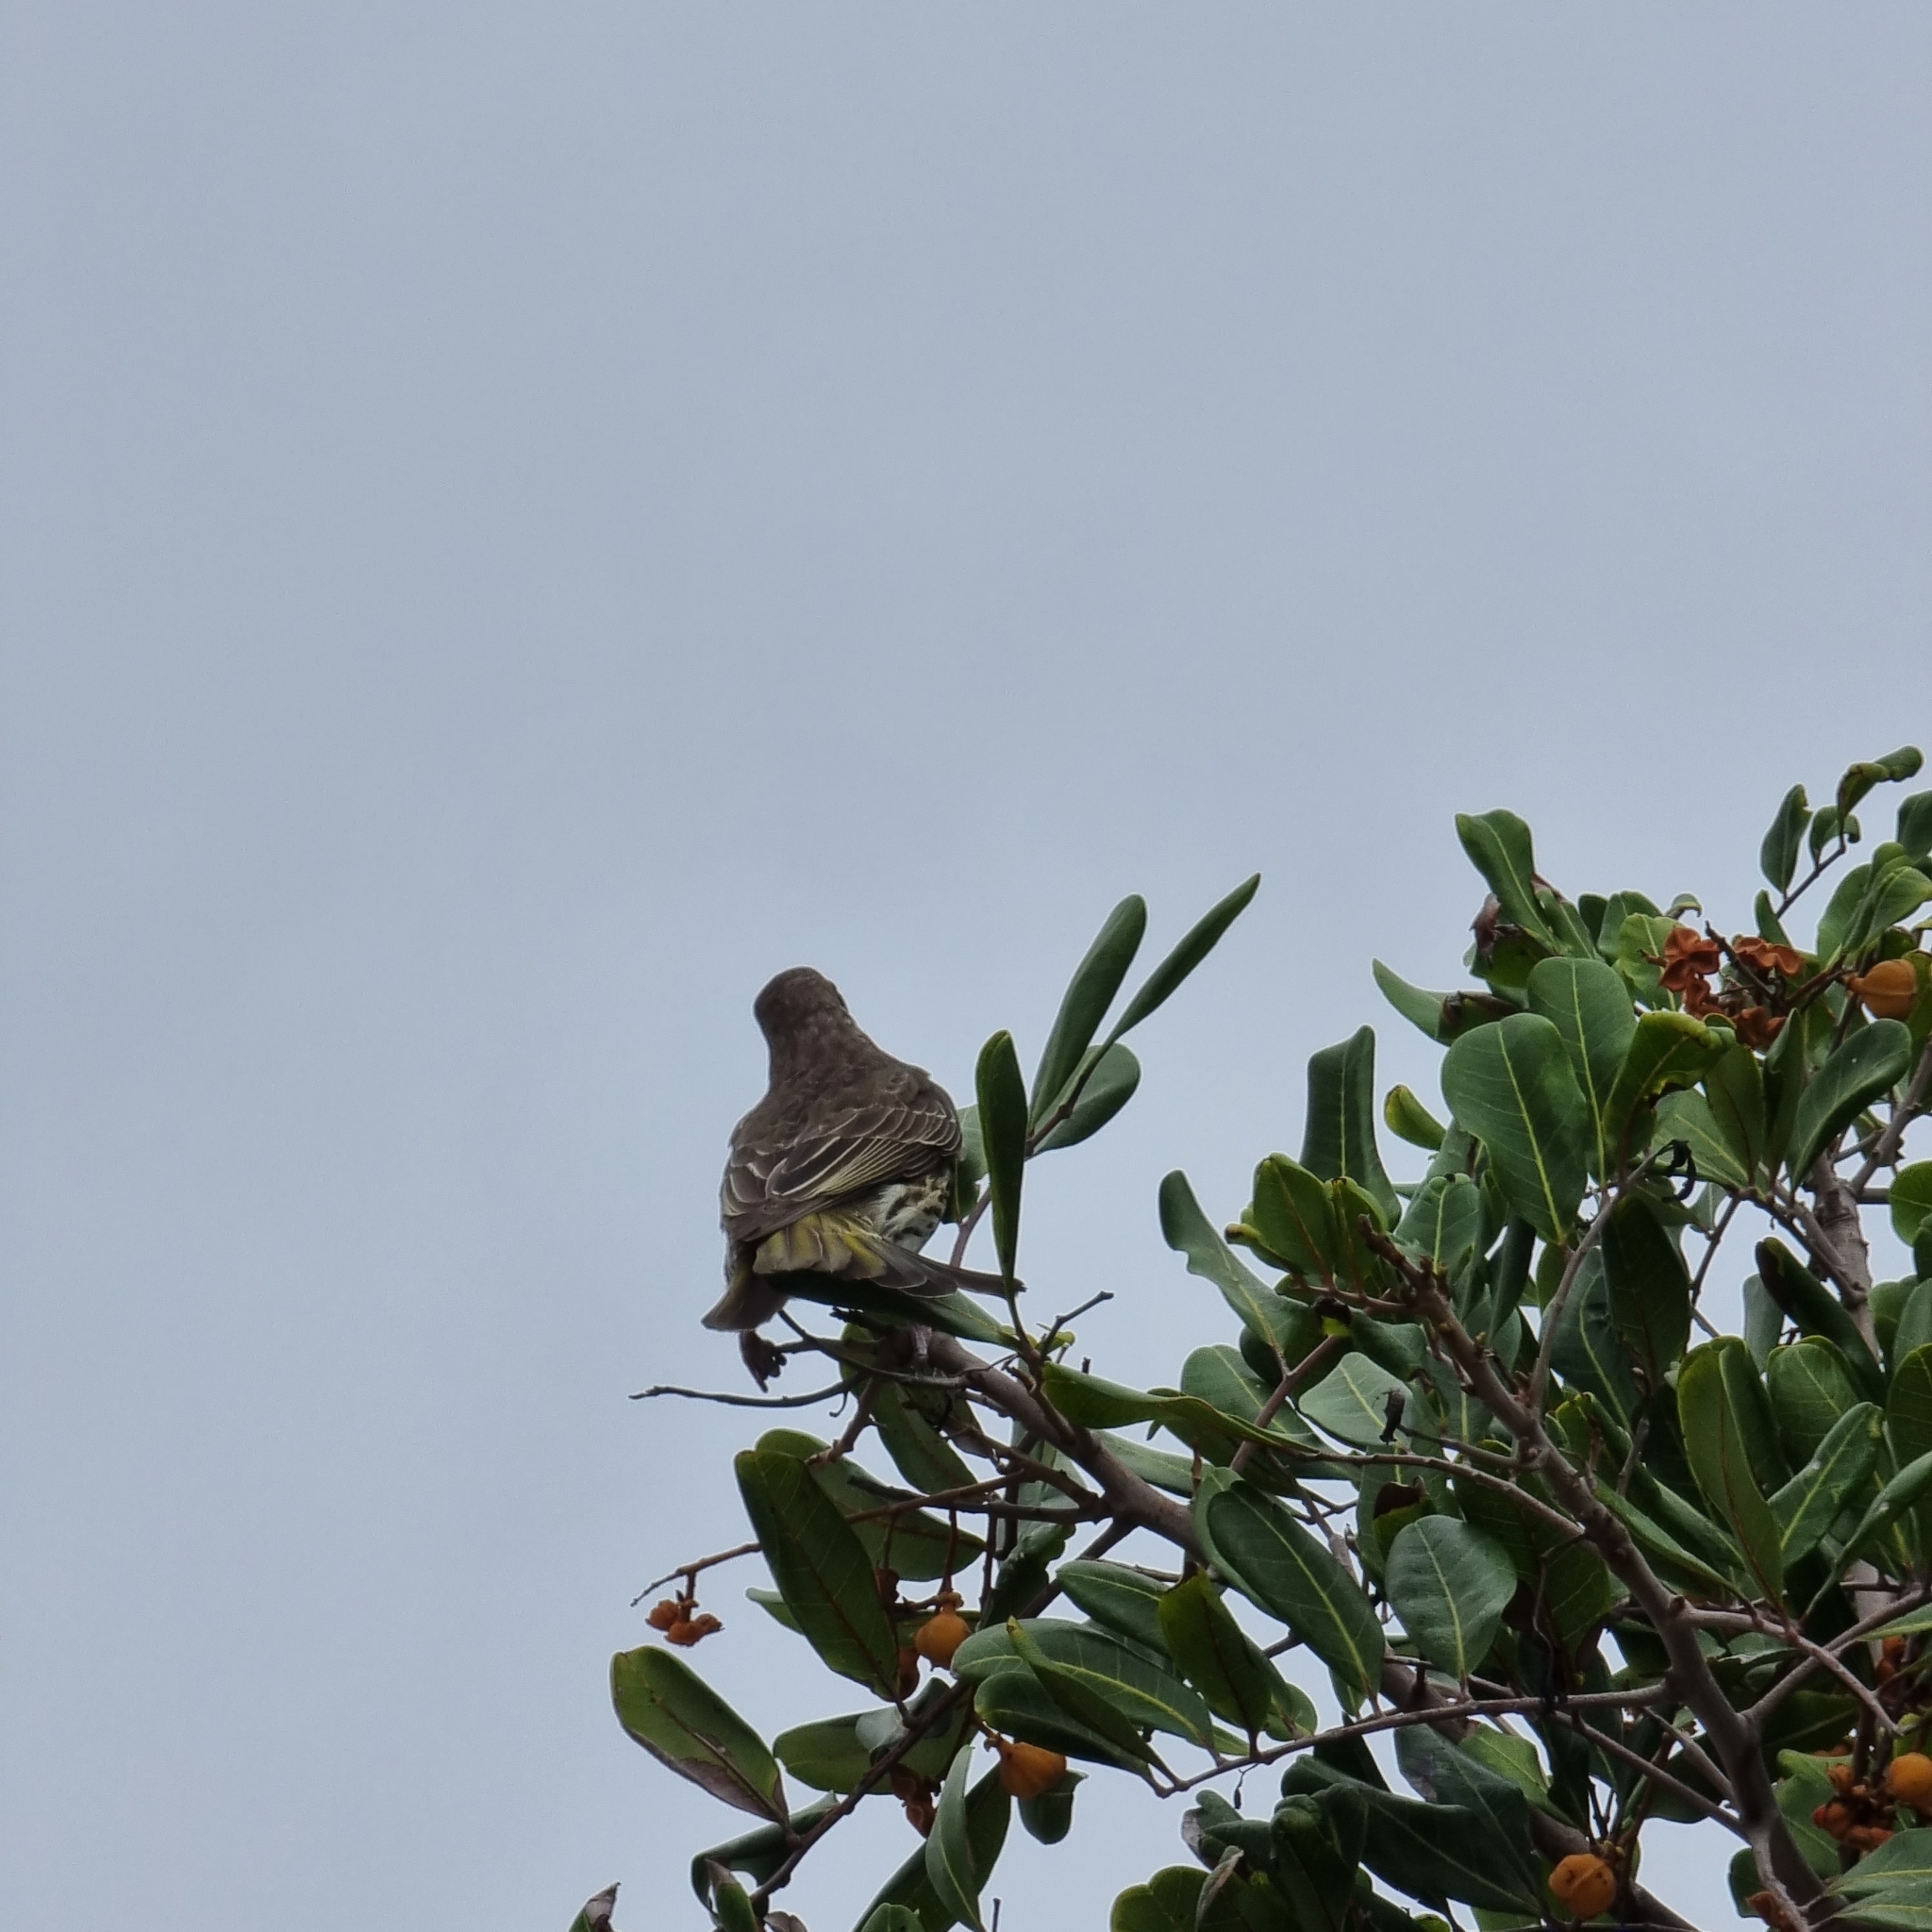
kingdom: Animalia
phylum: Chordata
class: Aves
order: Passeriformes
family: Oriolidae
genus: Sphecotheres
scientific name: Sphecotheres vieilloti
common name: Australasian figbird
